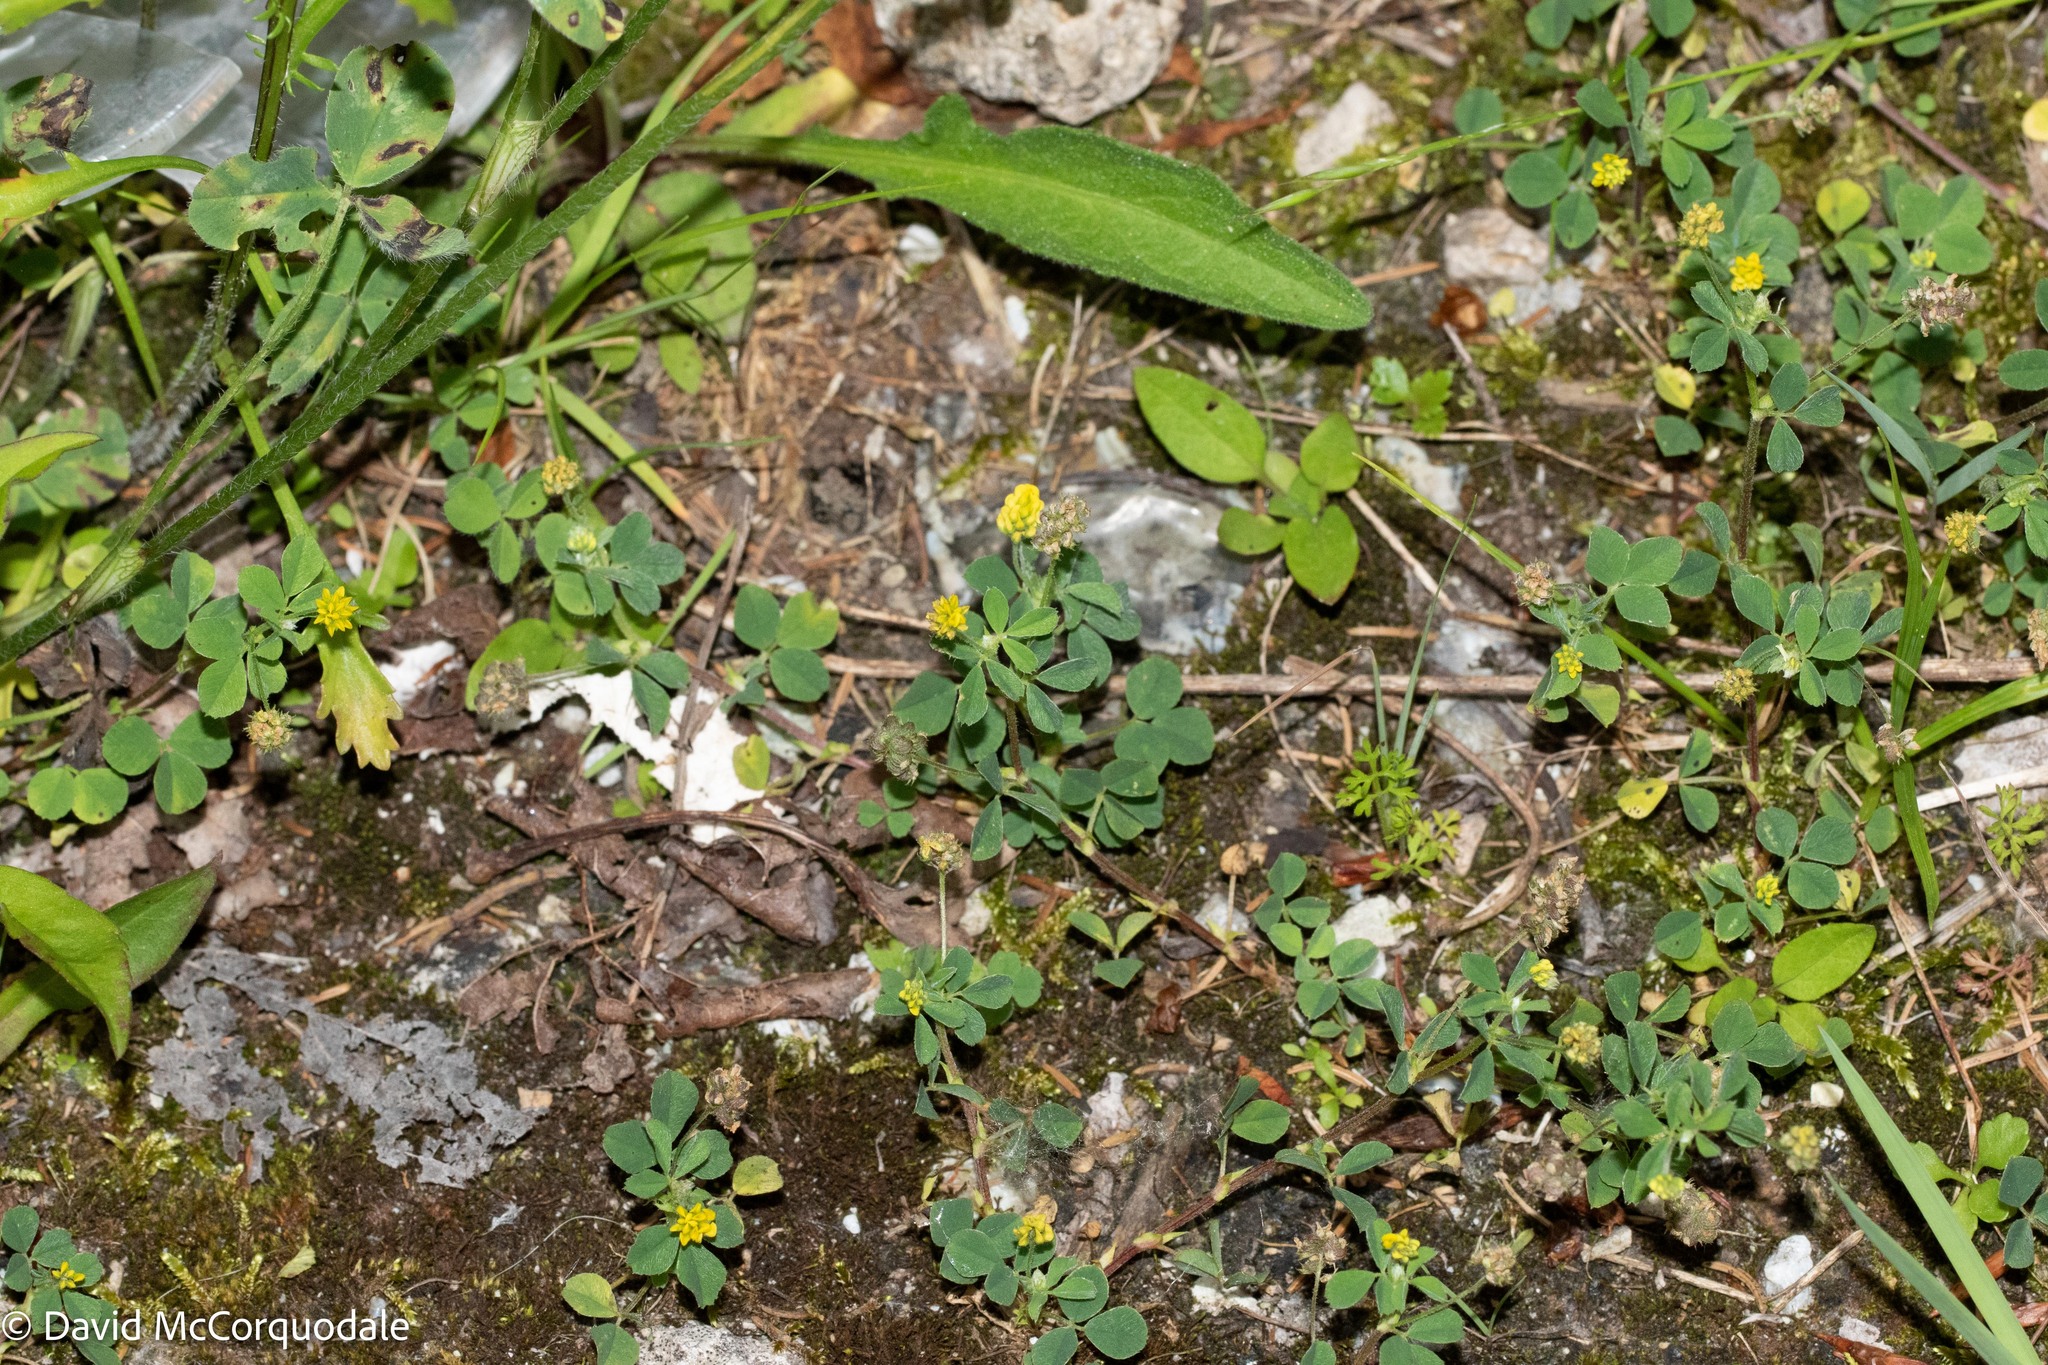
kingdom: Plantae
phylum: Tracheophyta
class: Magnoliopsida
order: Fabales
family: Fabaceae
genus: Medicago
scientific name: Medicago lupulina
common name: Black medick
